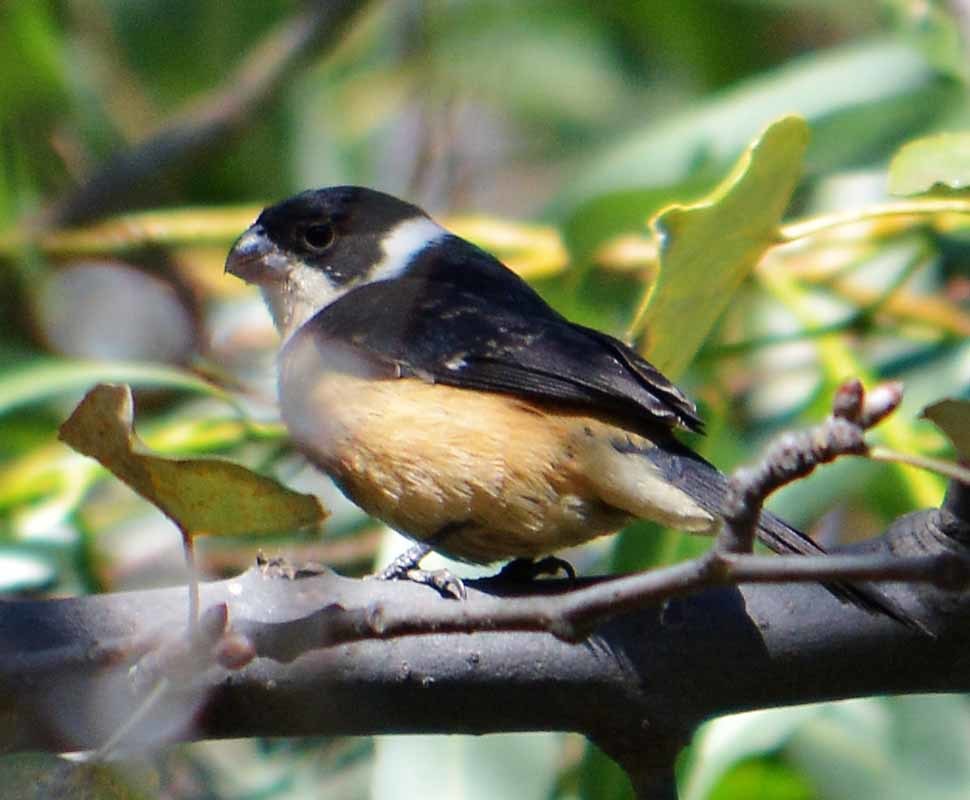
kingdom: Animalia
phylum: Chordata
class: Aves
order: Passeriformes
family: Thraupidae
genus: Sporophila
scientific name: Sporophila torqueola
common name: White-collared seedeater
